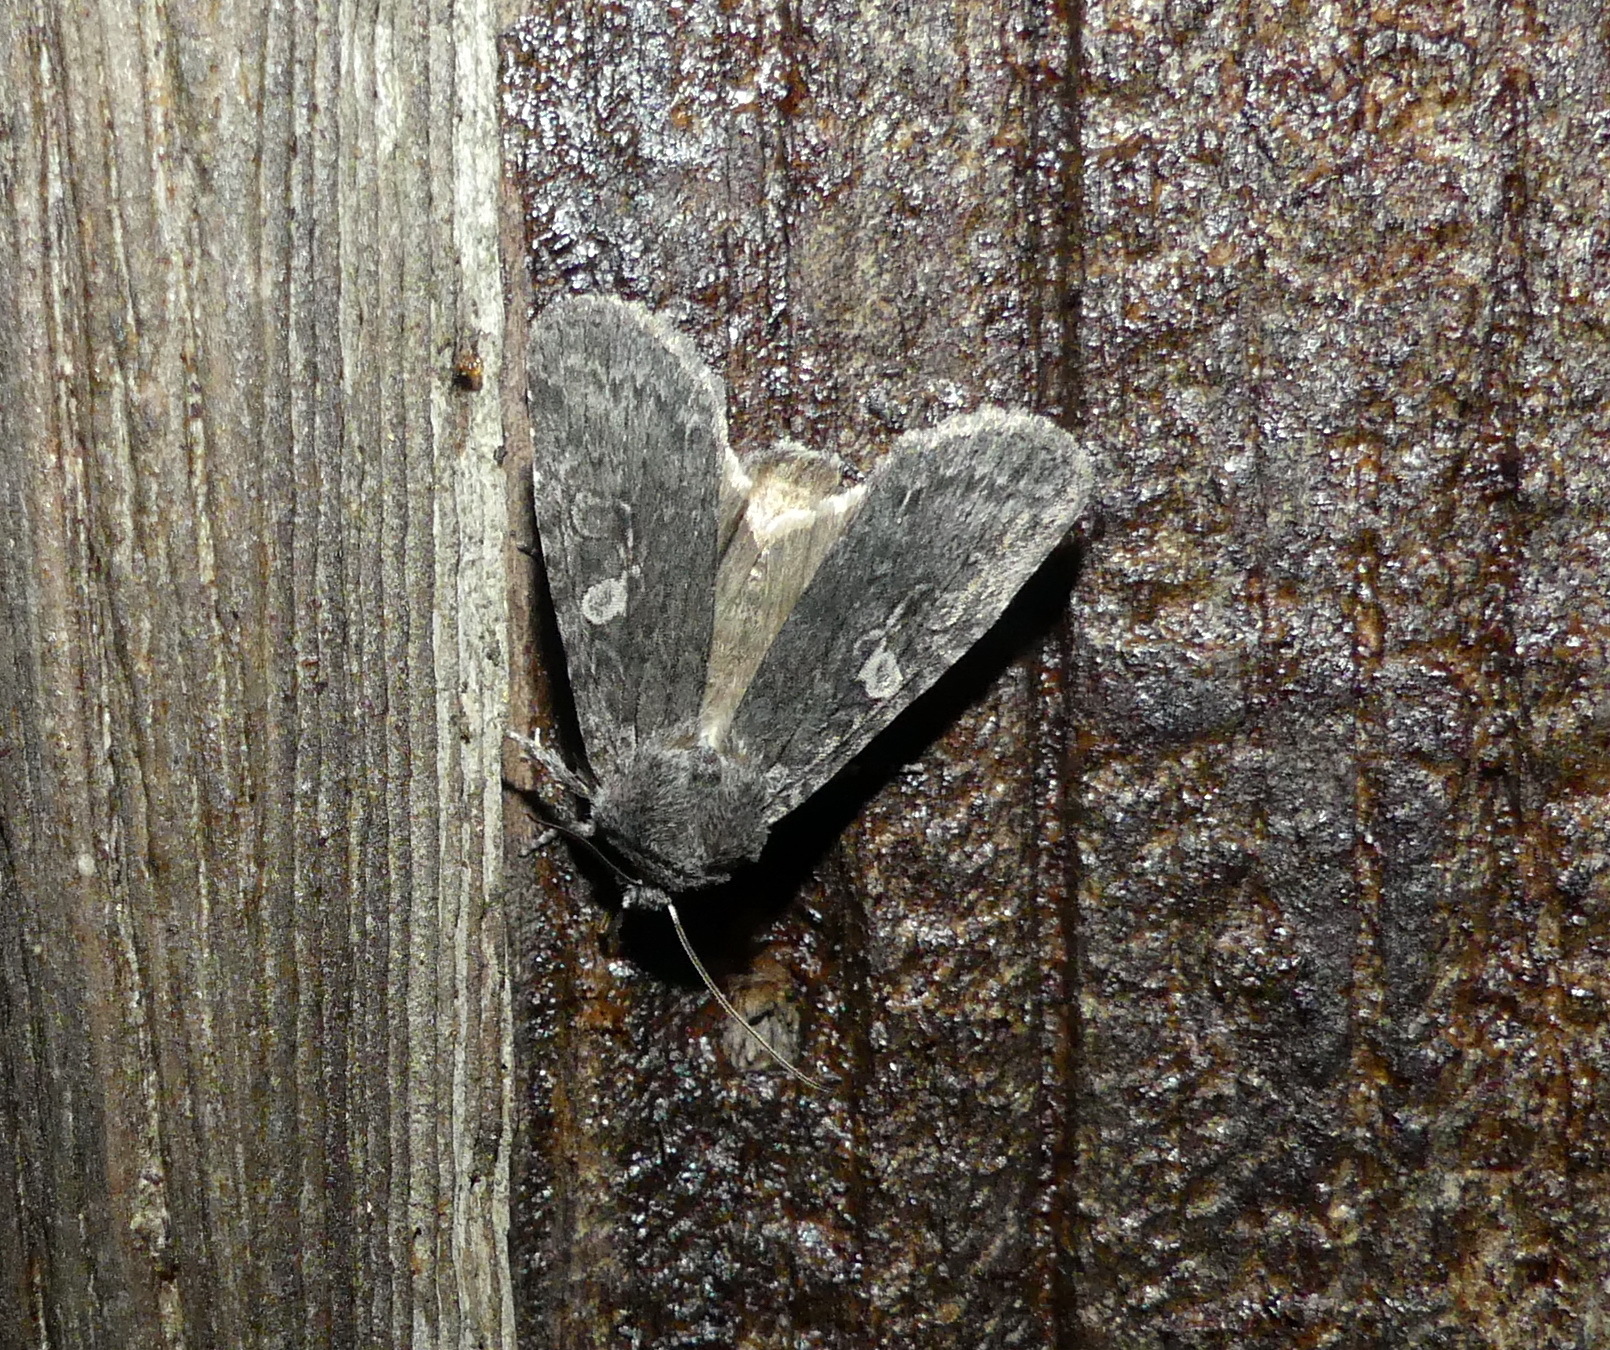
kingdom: Animalia
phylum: Arthropoda
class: Insecta
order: Lepidoptera
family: Noctuidae
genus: Lithophane
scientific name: Lithophane unimoda
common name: Dowdy pinion
